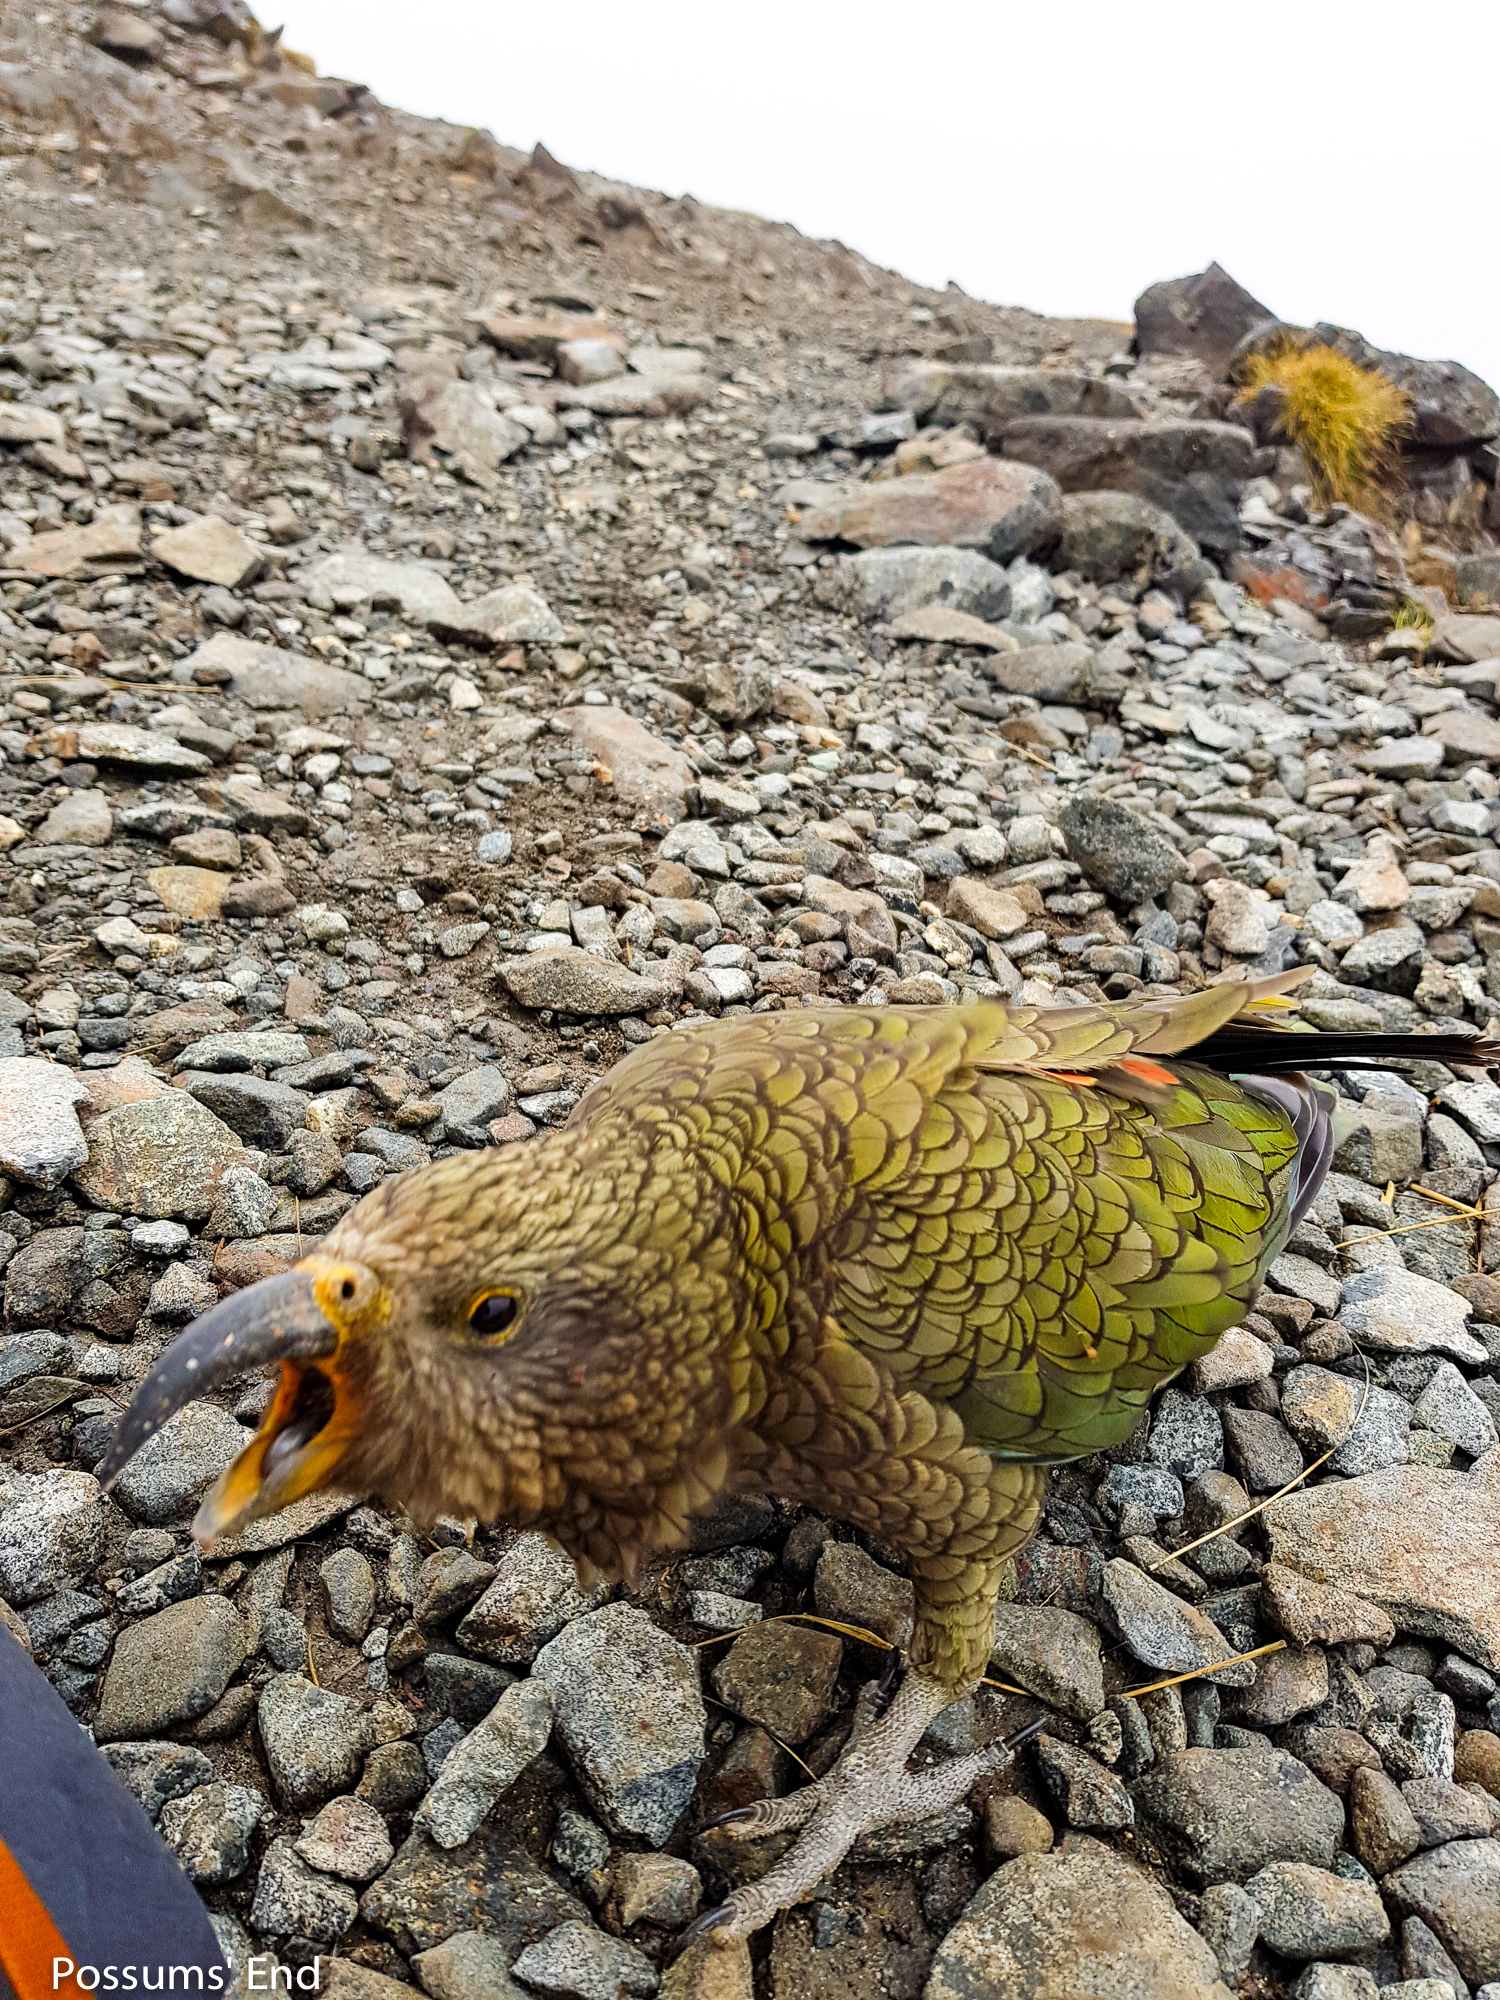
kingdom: Animalia
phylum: Chordata
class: Aves
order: Psittaciformes
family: Psittacidae
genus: Nestor
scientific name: Nestor notabilis
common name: Kea
